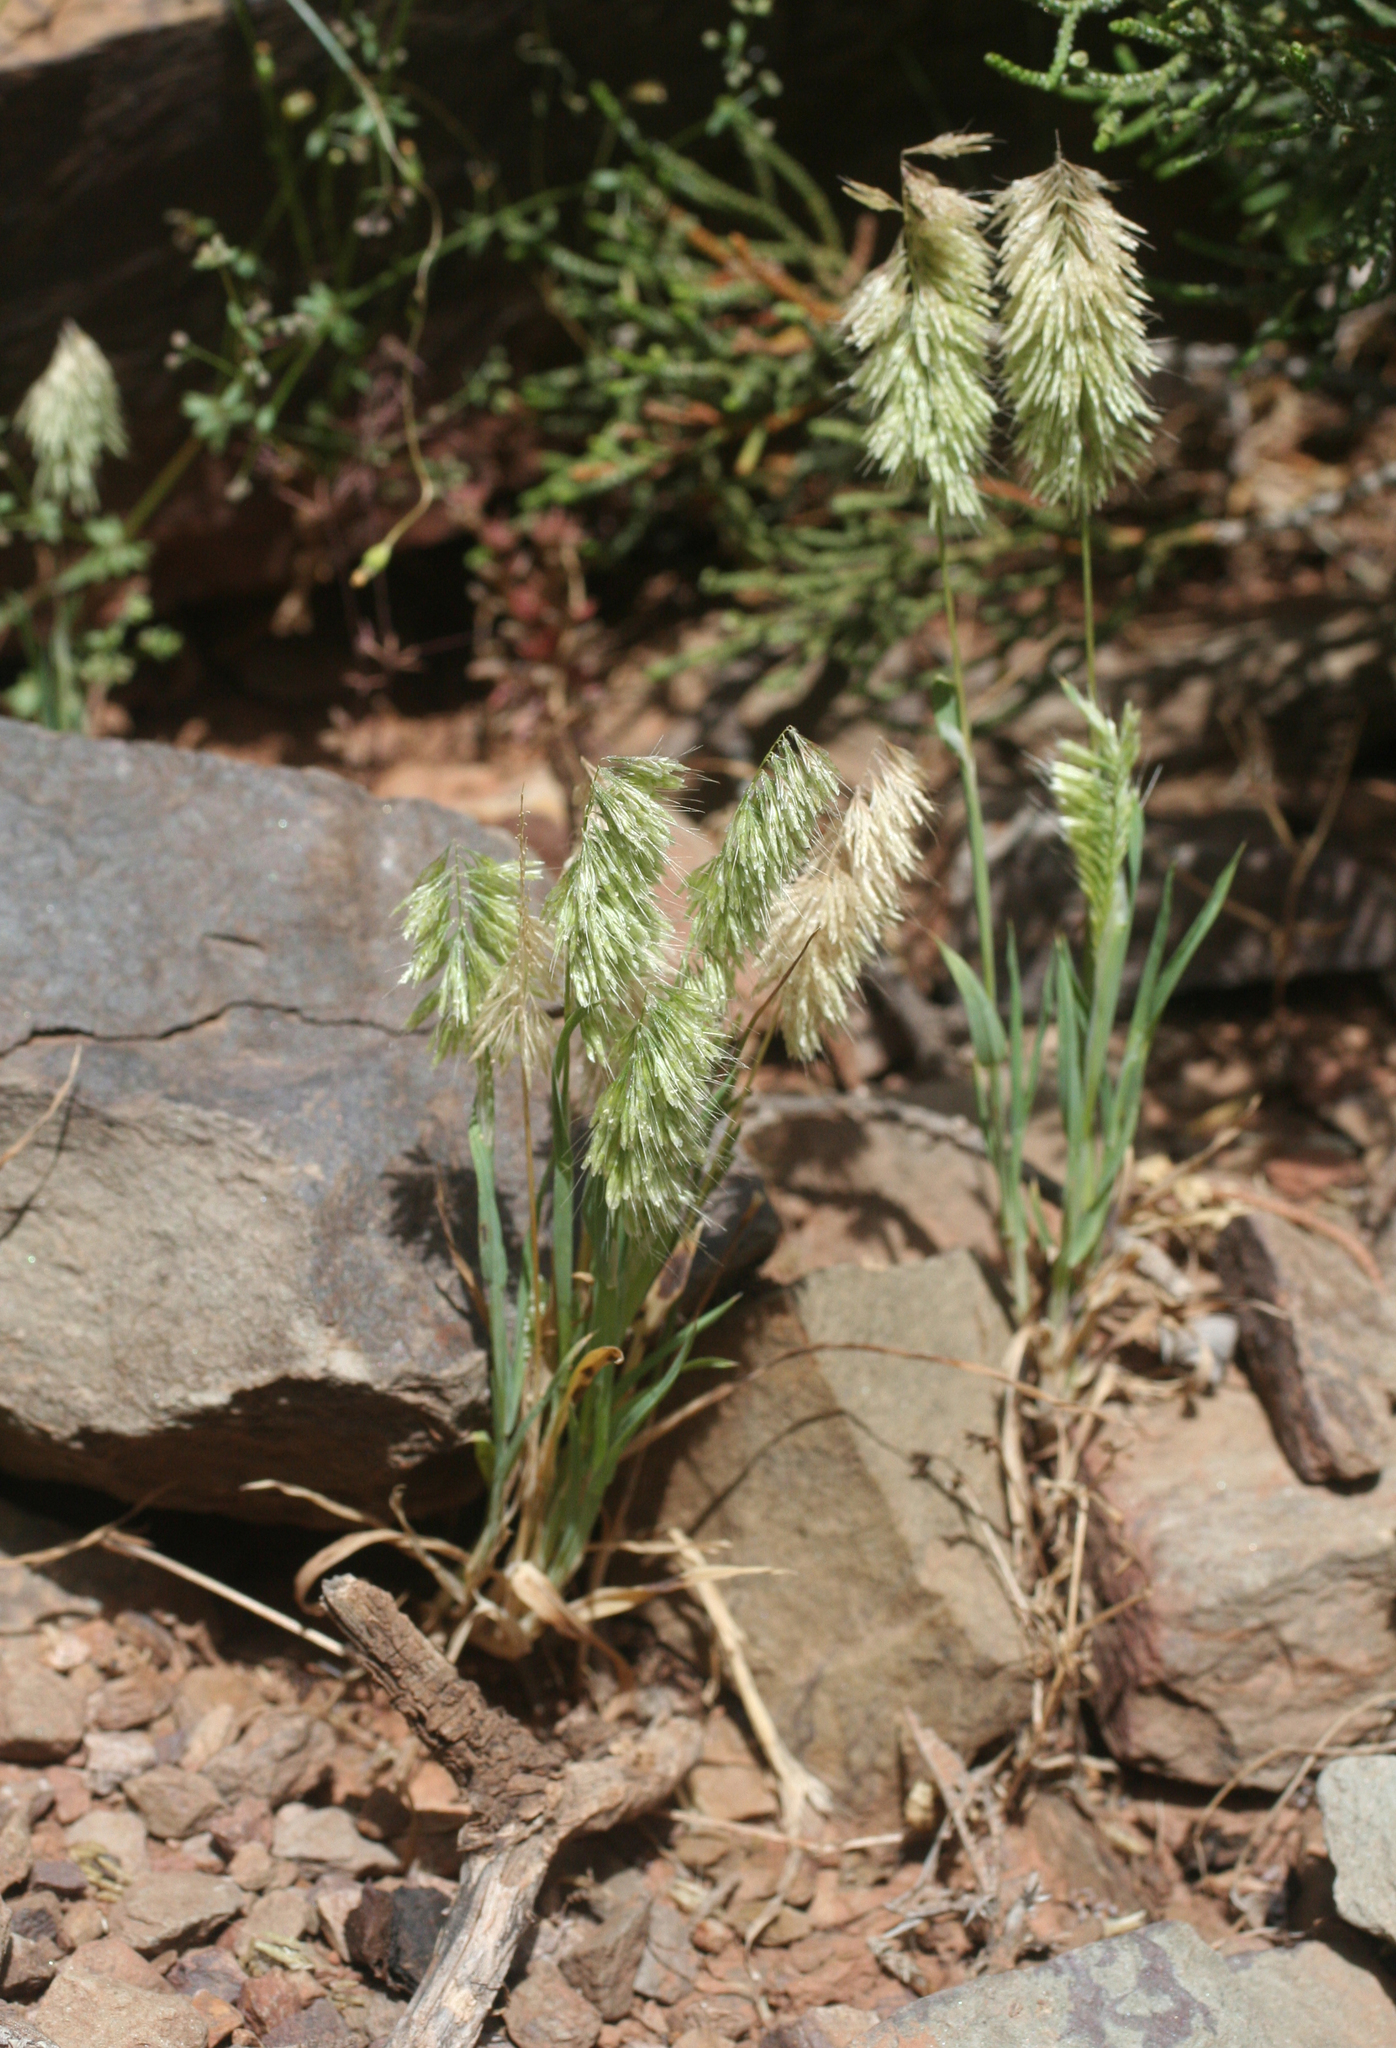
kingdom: Plantae
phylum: Tracheophyta
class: Liliopsida
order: Poales
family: Poaceae
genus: Lamarckia
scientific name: Lamarckia aurea
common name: Golden dog's-tail
